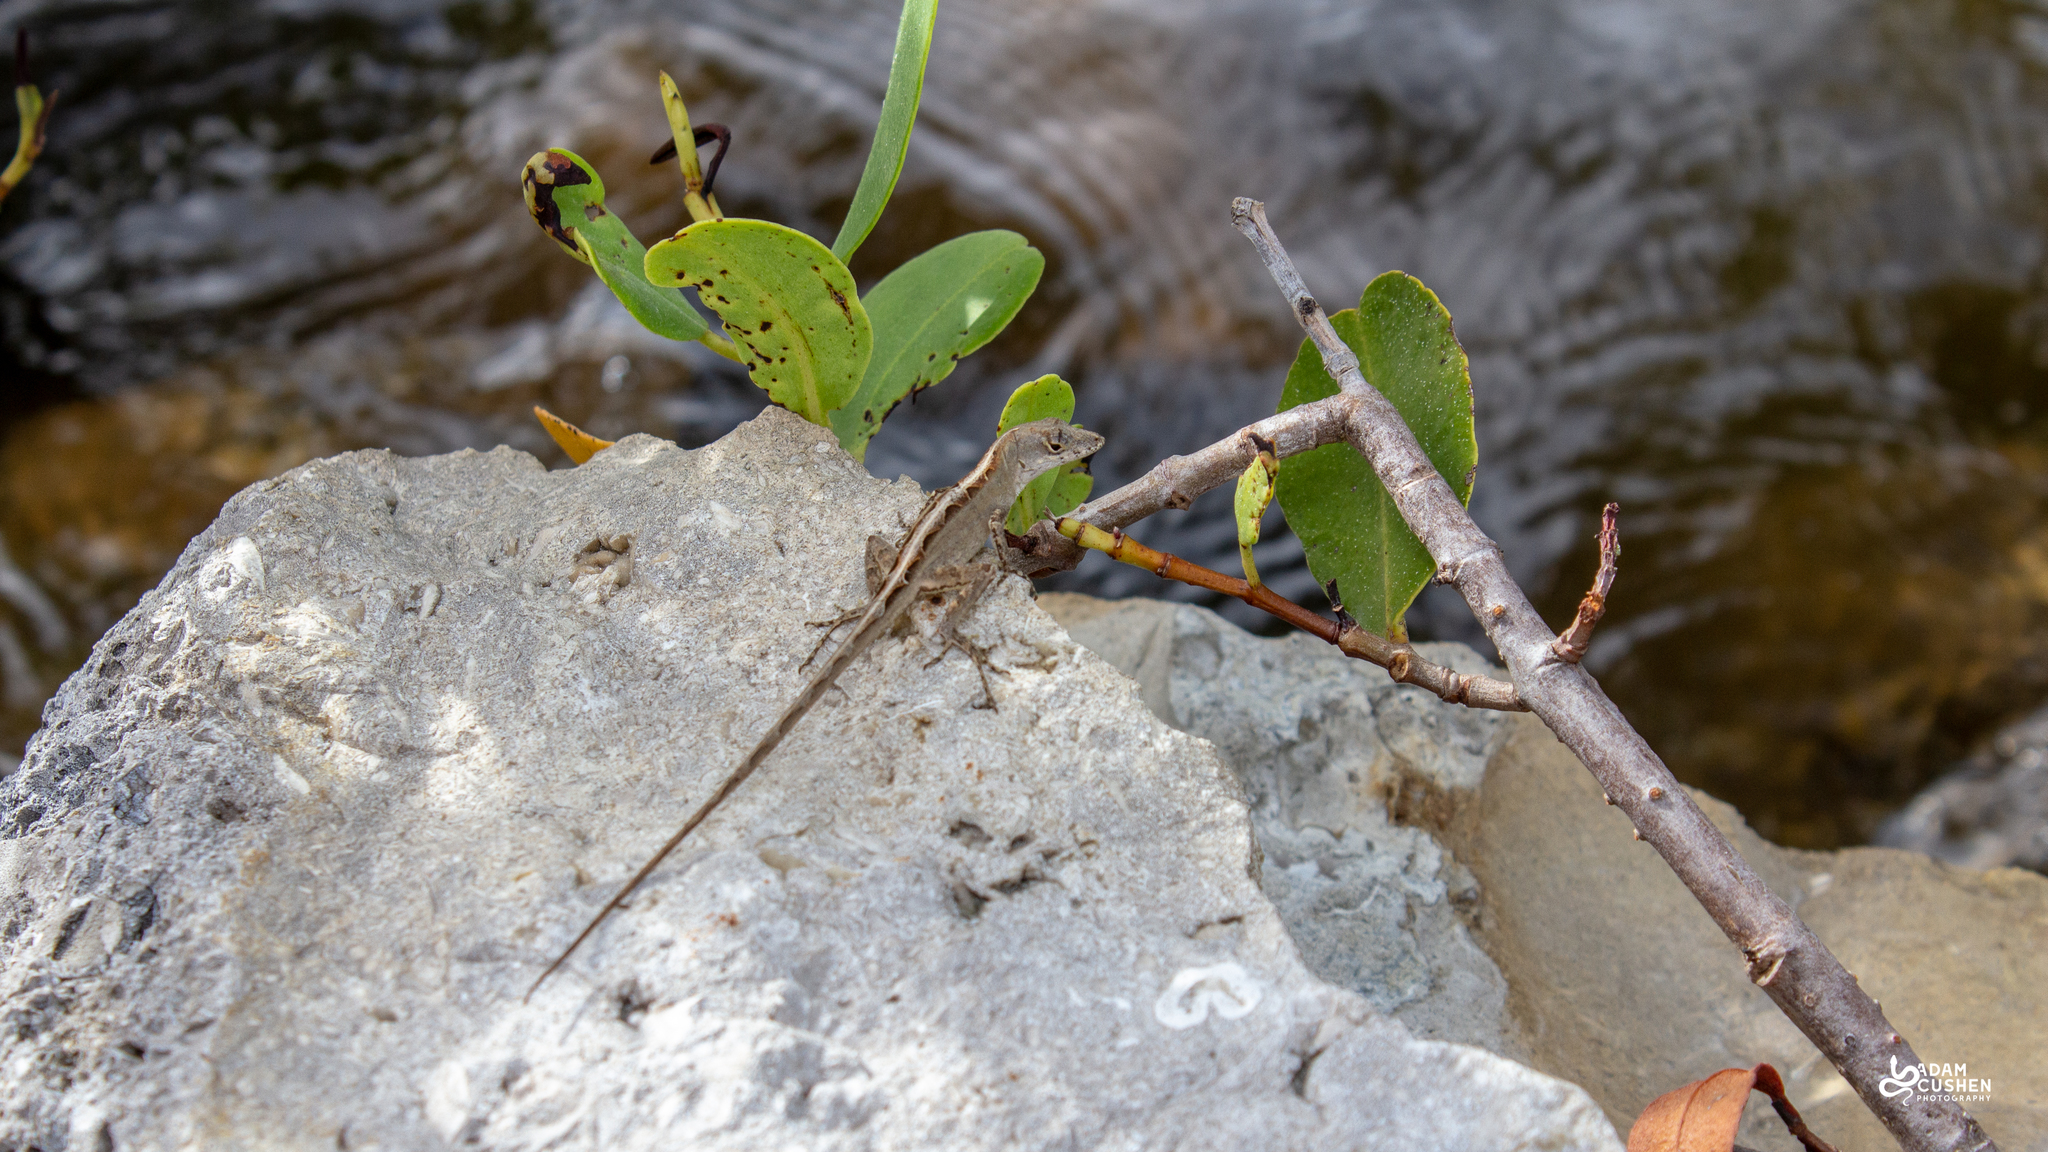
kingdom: Animalia
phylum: Chordata
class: Squamata
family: Dactyloidae
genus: Anolis
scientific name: Anolis sagrei
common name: Brown anole
